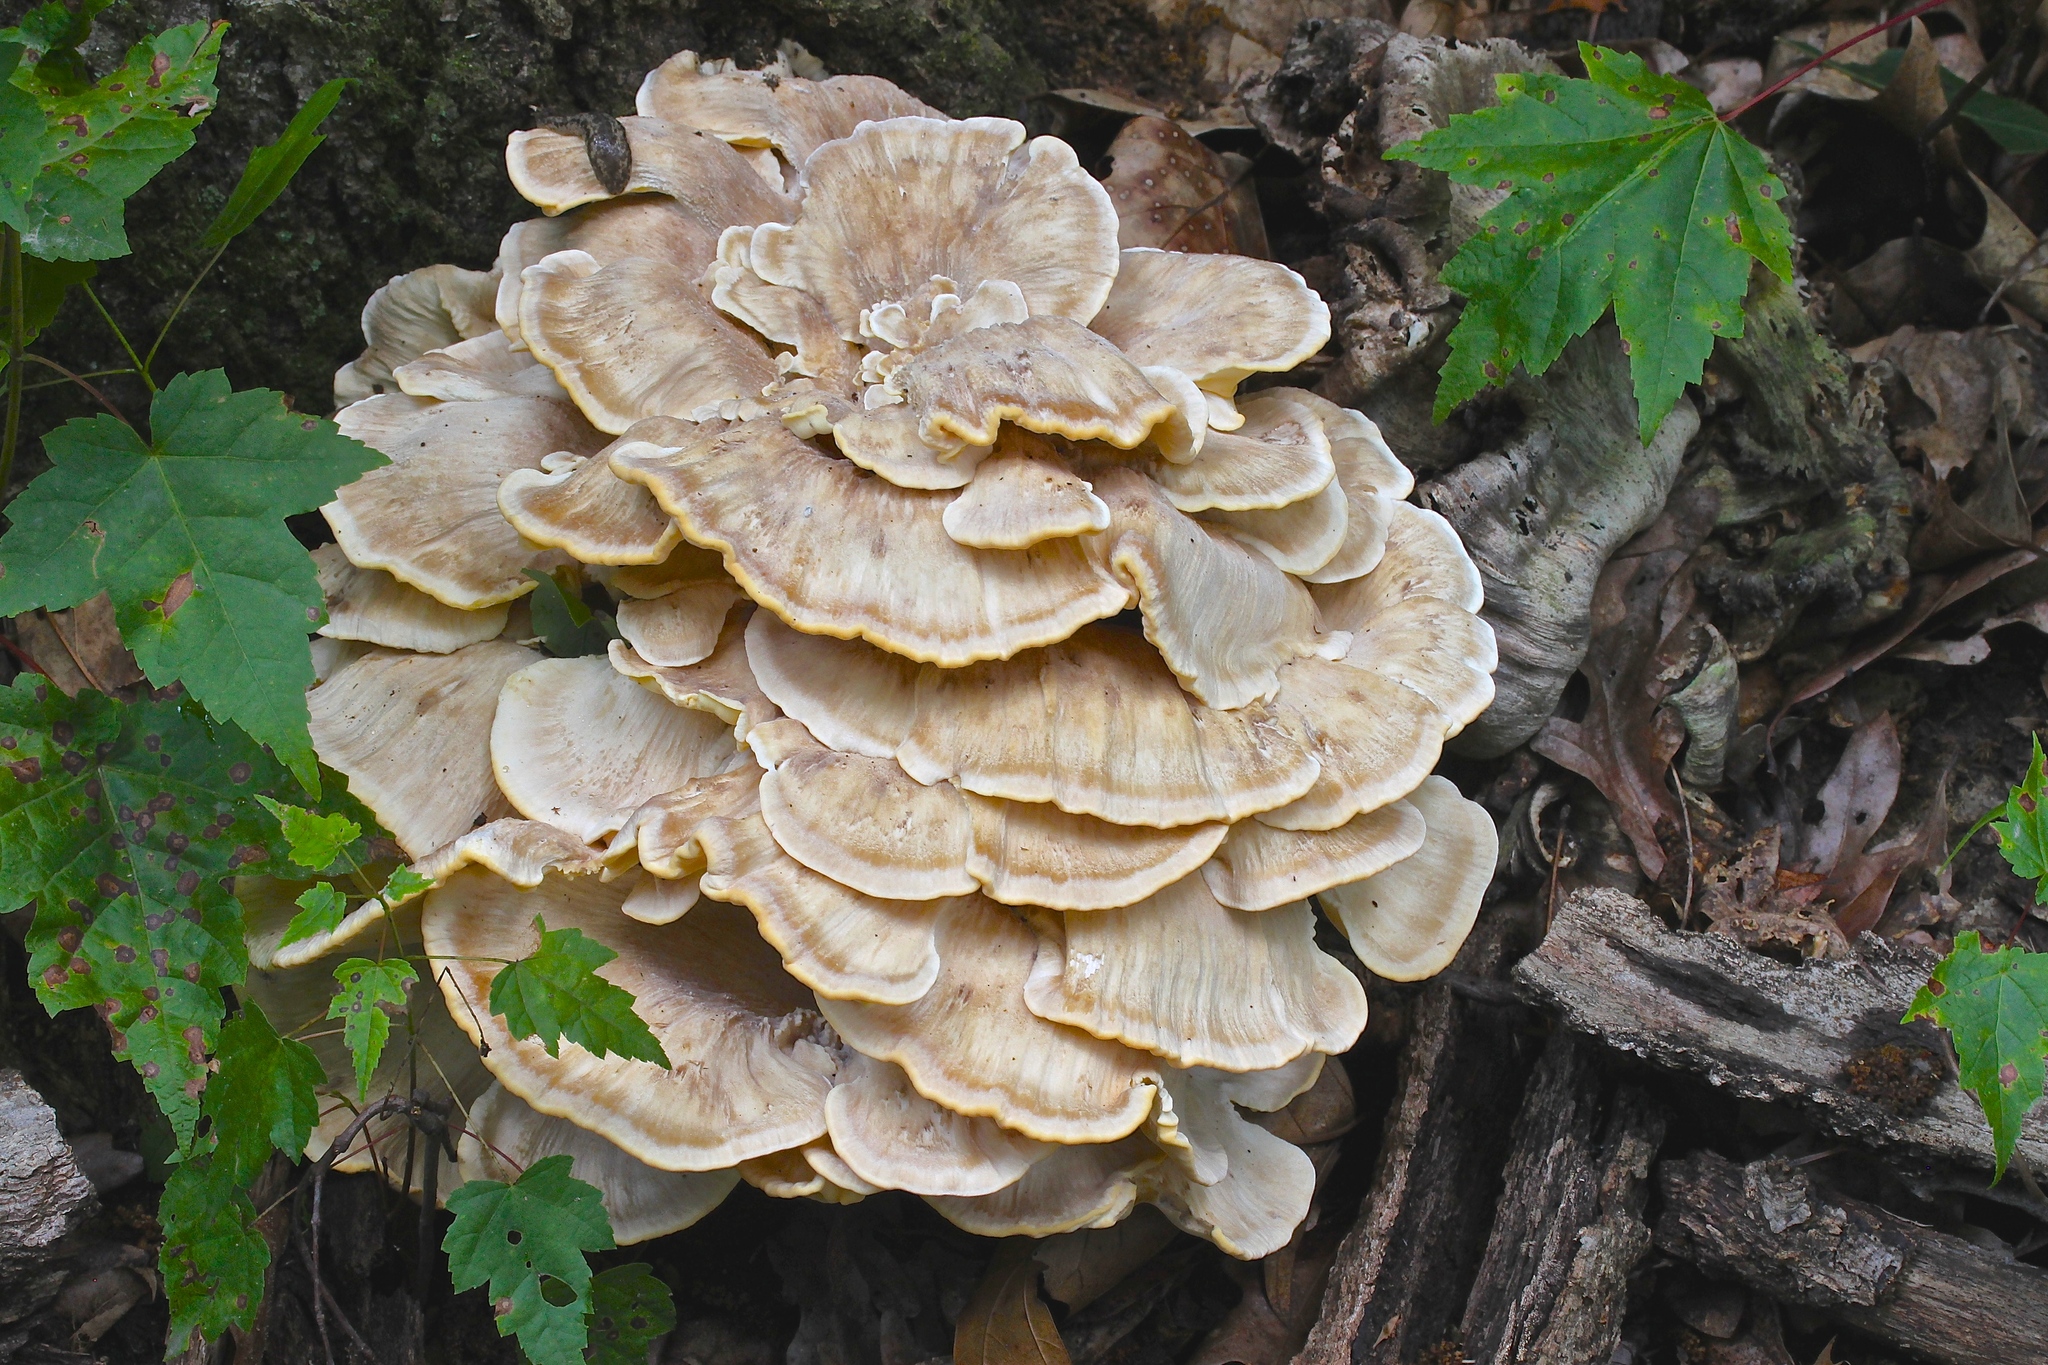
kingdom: Fungi
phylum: Basidiomycota
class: Agaricomycetes
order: Polyporales
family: Meripilaceae
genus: Meripilus
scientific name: Meripilus sumstinei
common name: Black-staining polypore
